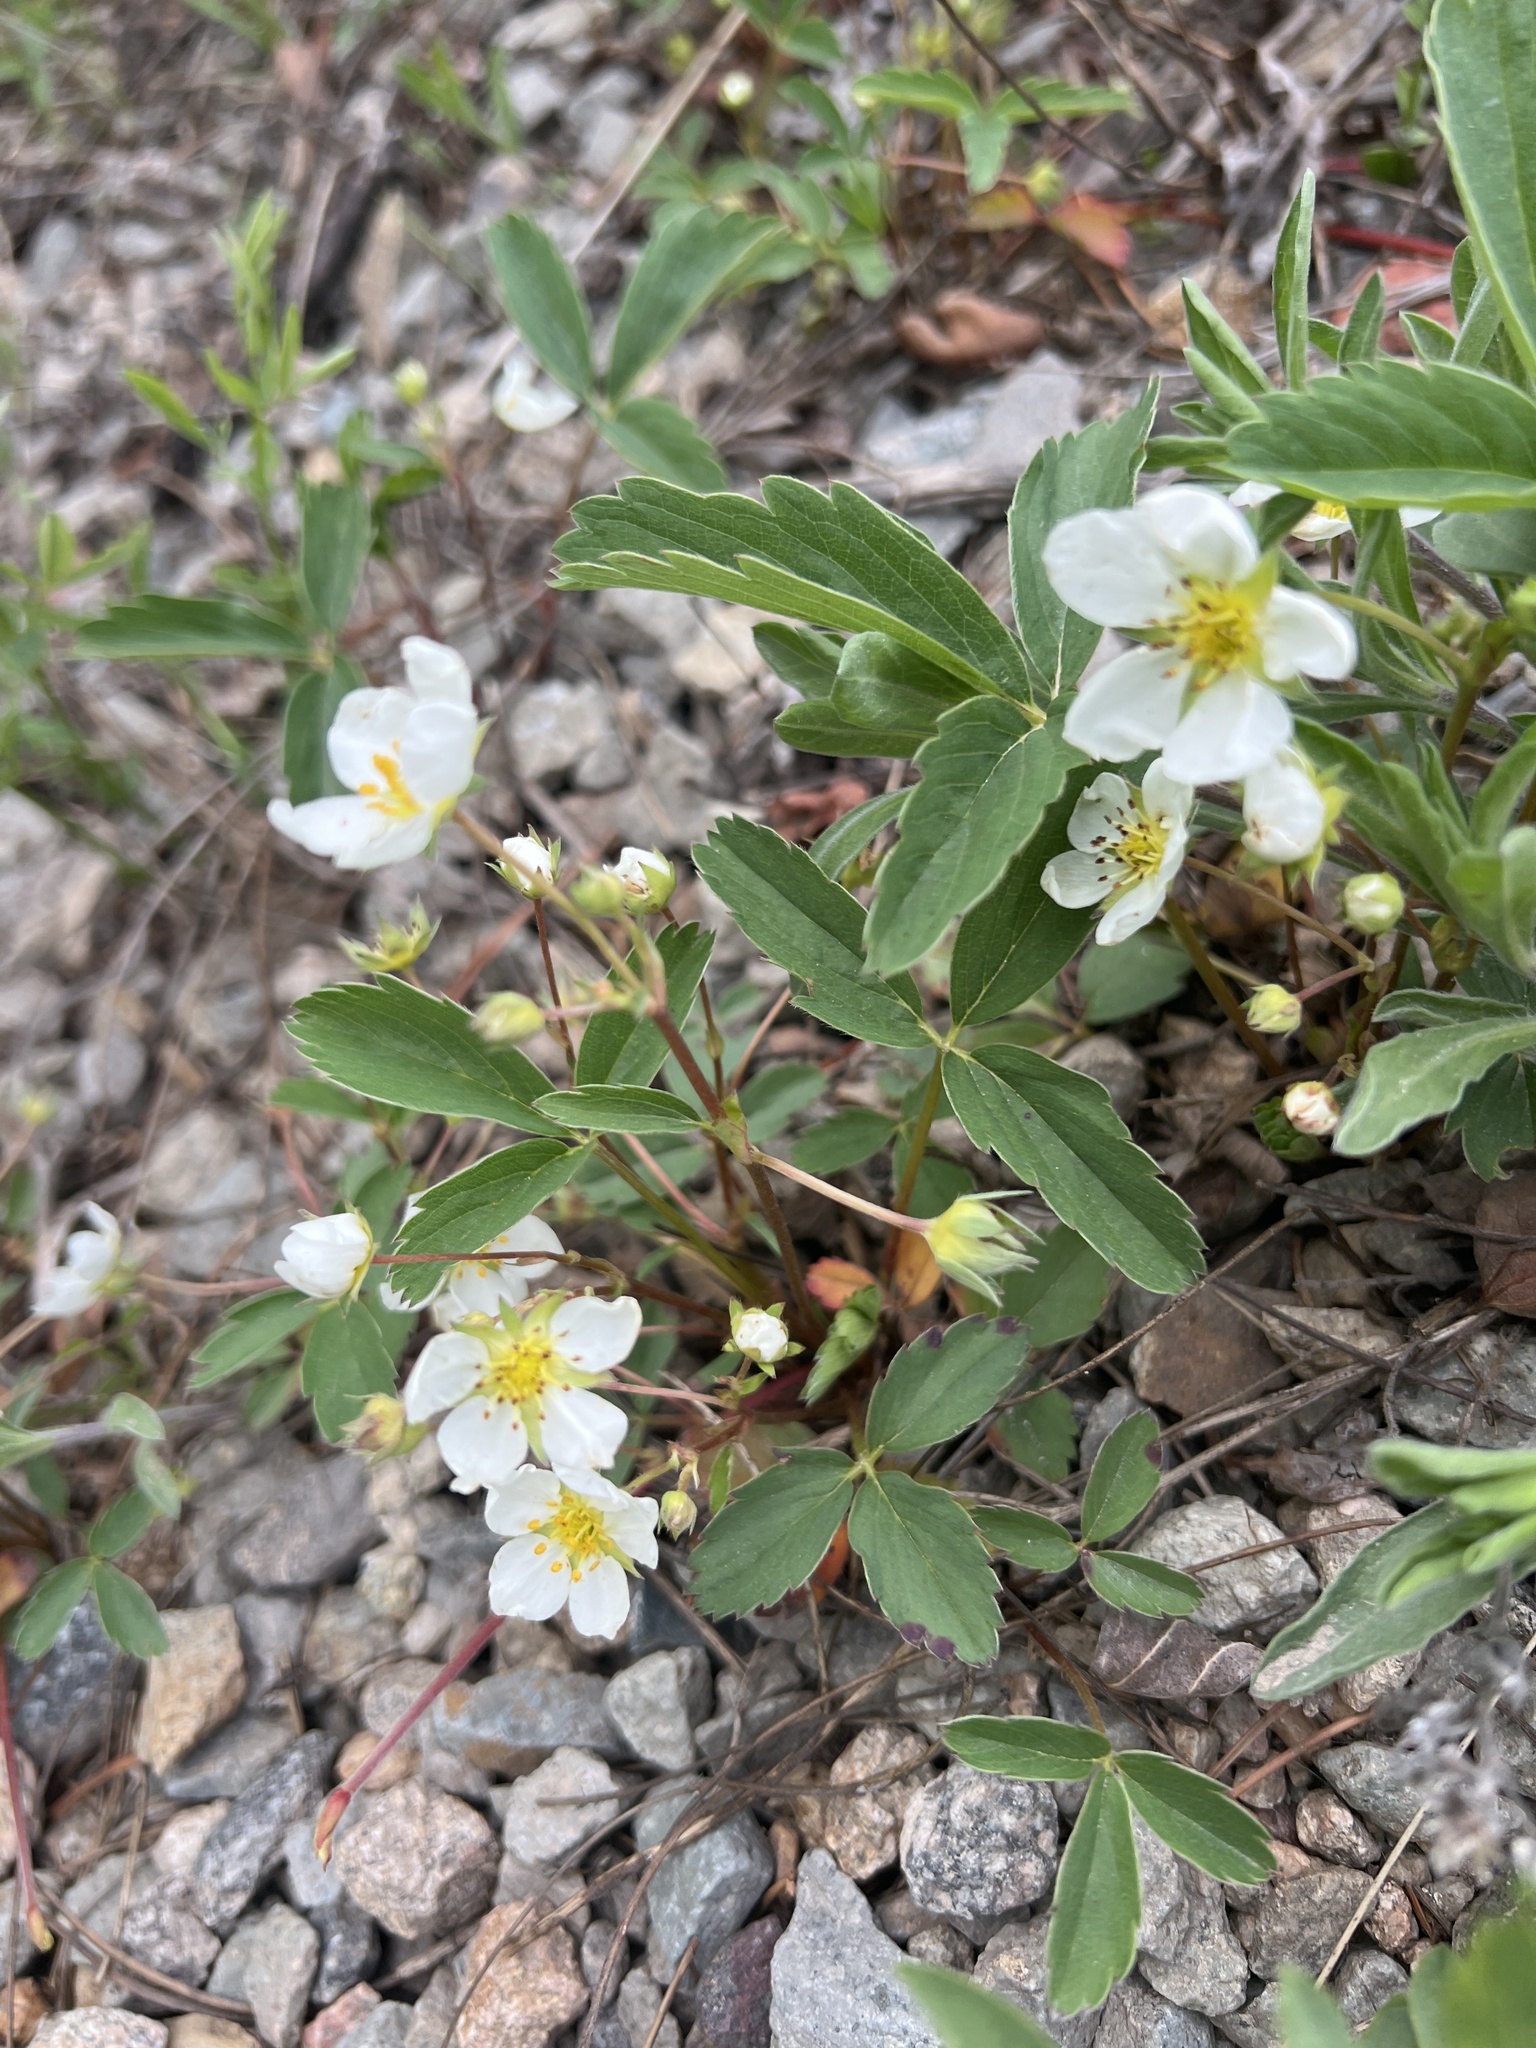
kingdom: Plantae
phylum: Tracheophyta
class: Magnoliopsida
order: Rosales
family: Rosaceae
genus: Fragaria
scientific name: Fragaria virginiana
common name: Thickleaved wild strawberry
